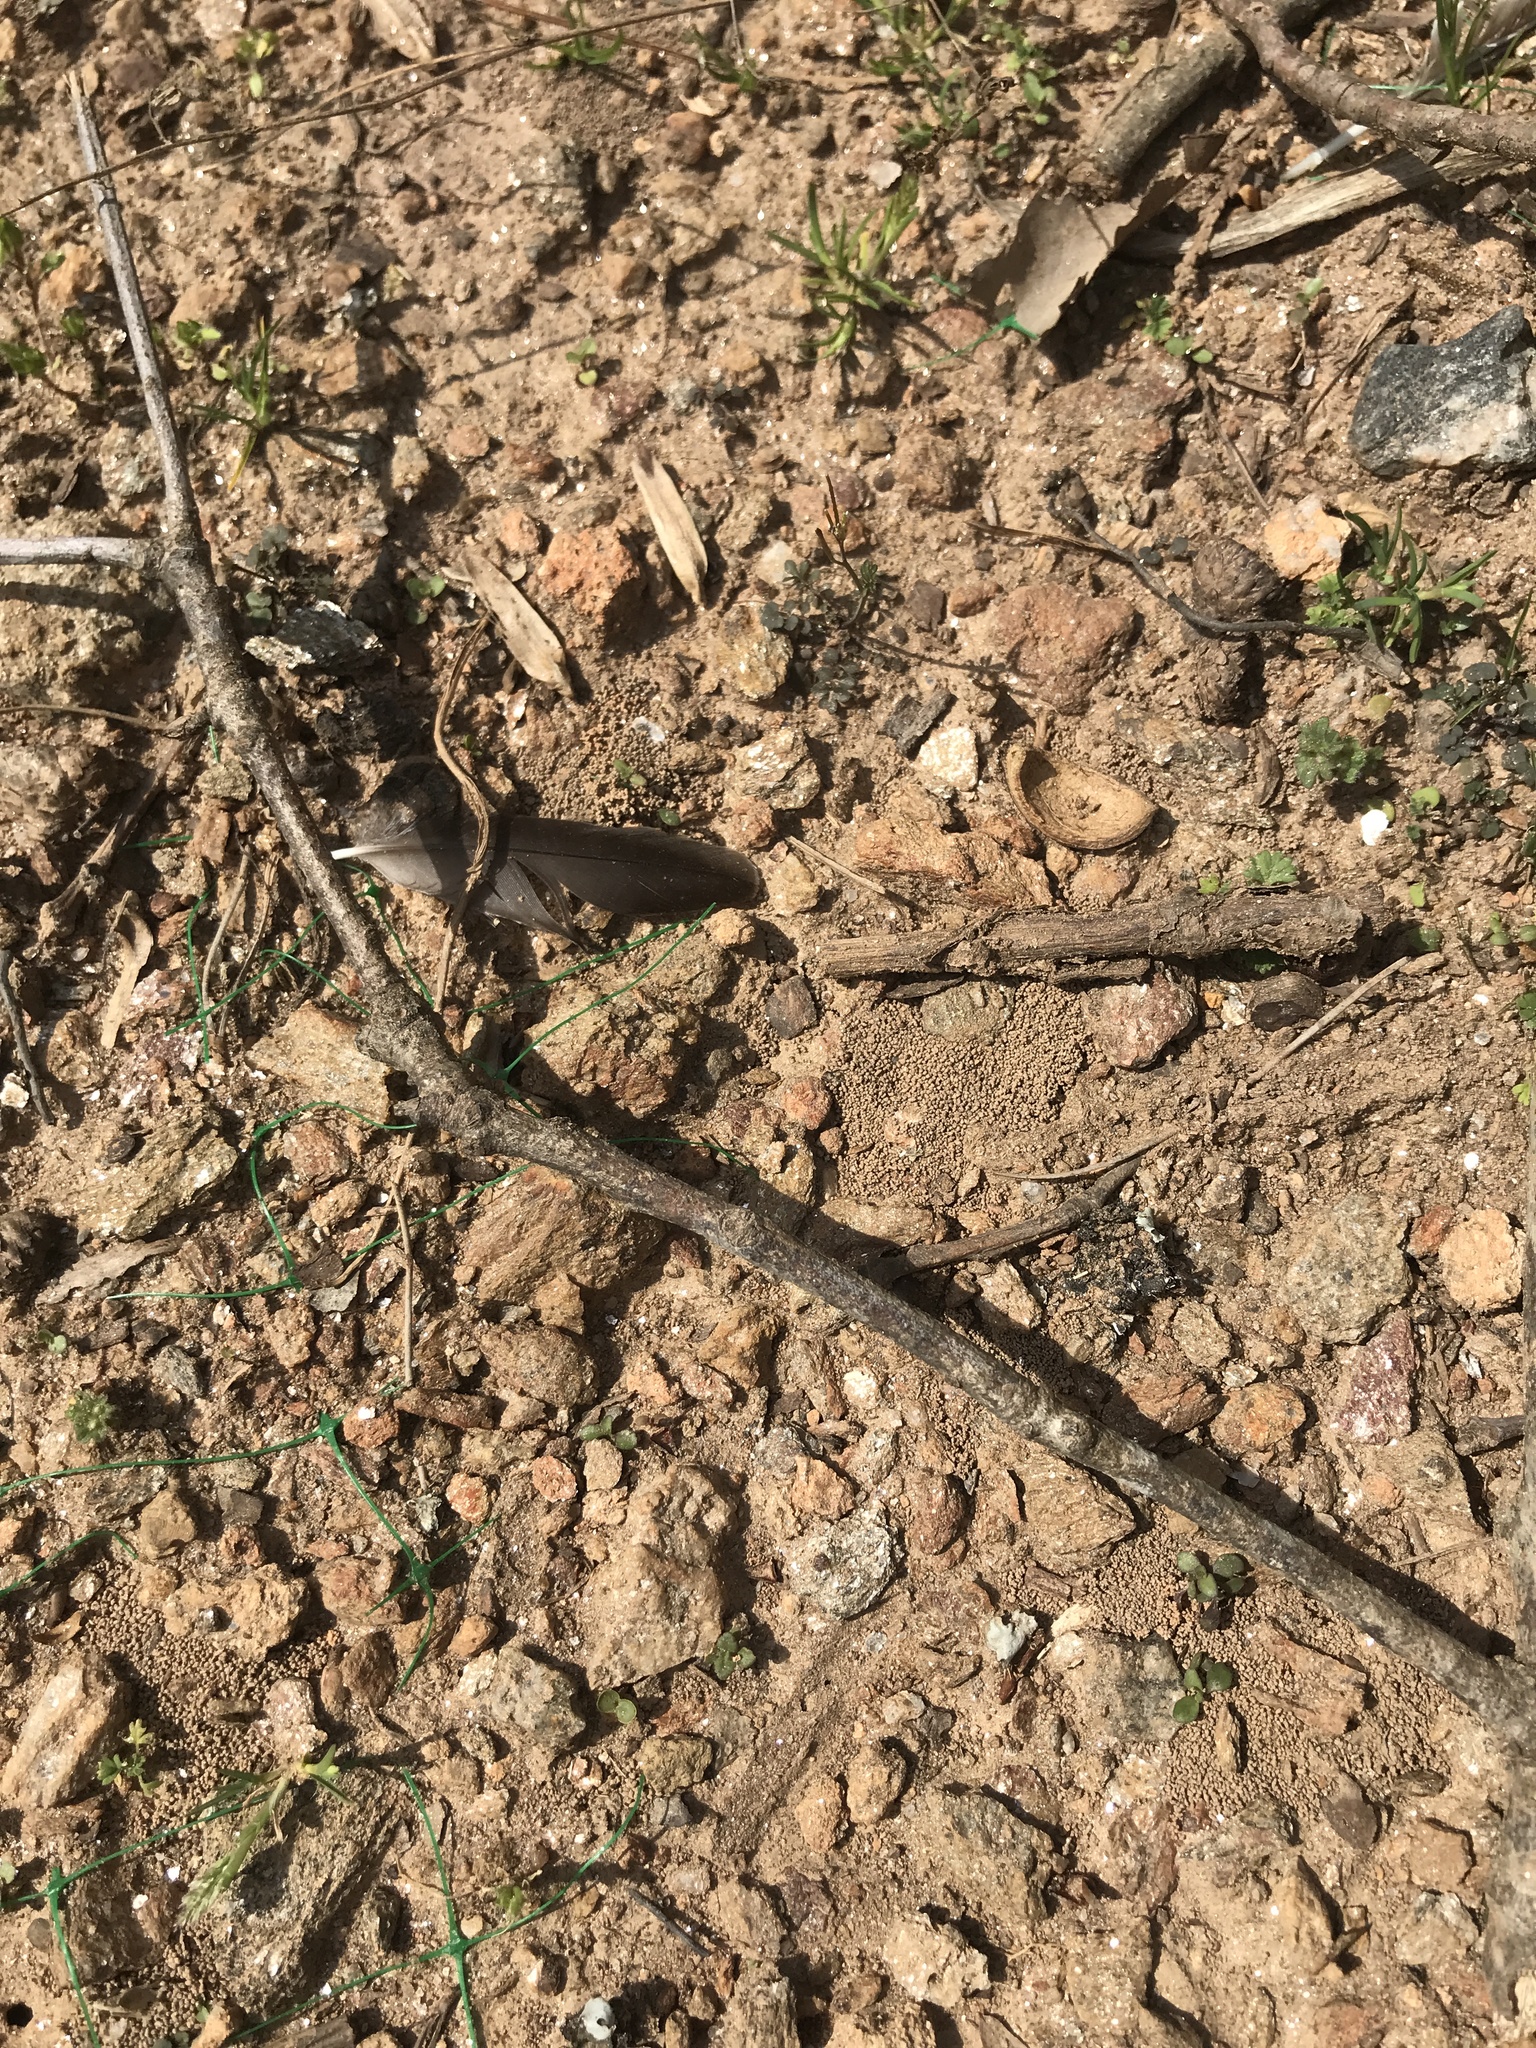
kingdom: Animalia
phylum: Chordata
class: Aves
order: Passeriformes
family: Turdidae
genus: Turdus
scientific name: Turdus migratorius
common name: American robin
